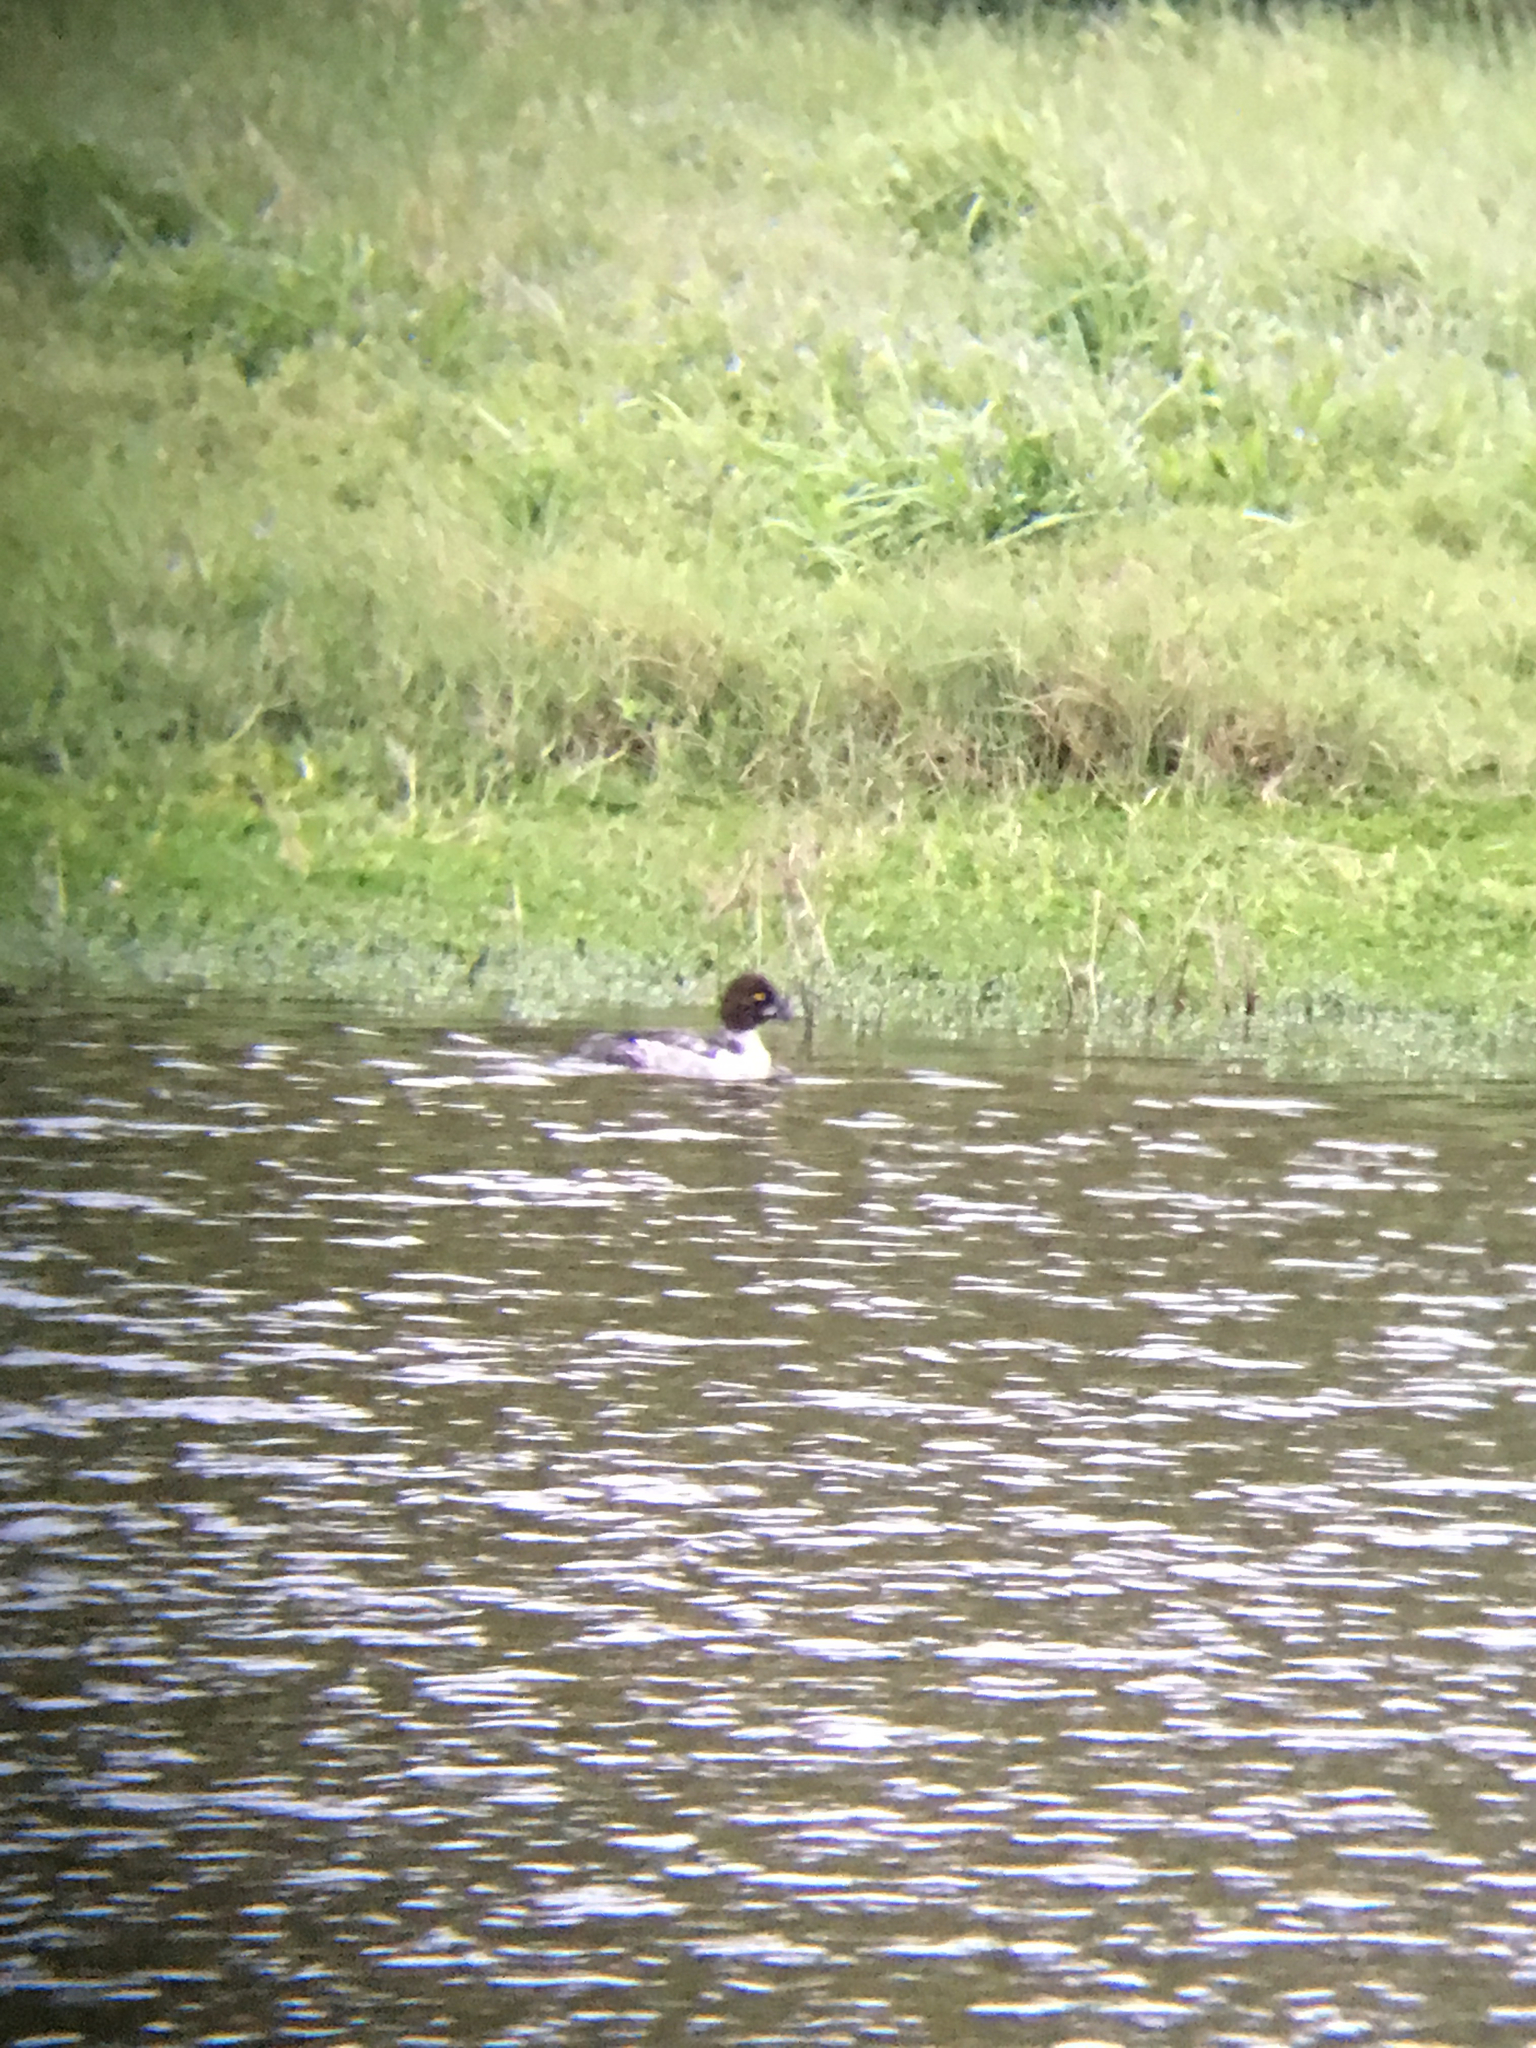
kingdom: Animalia
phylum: Chordata
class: Aves
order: Anseriformes
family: Anatidae
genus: Bucephala
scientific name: Bucephala clangula
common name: Common goldeneye
